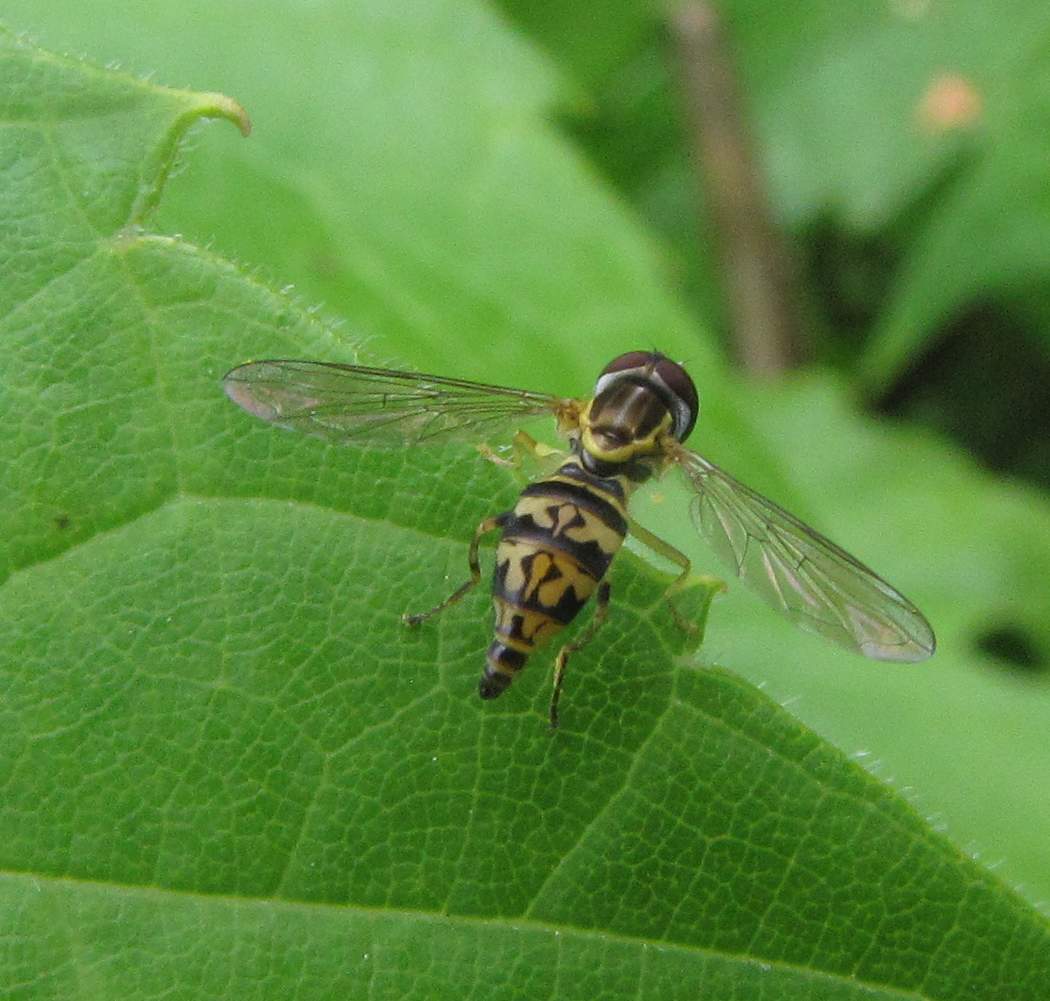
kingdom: Animalia
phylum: Arthropoda
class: Insecta
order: Diptera
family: Syrphidae
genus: Toxomerus
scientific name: Toxomerus geminatus
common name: Eastern calligrapher
